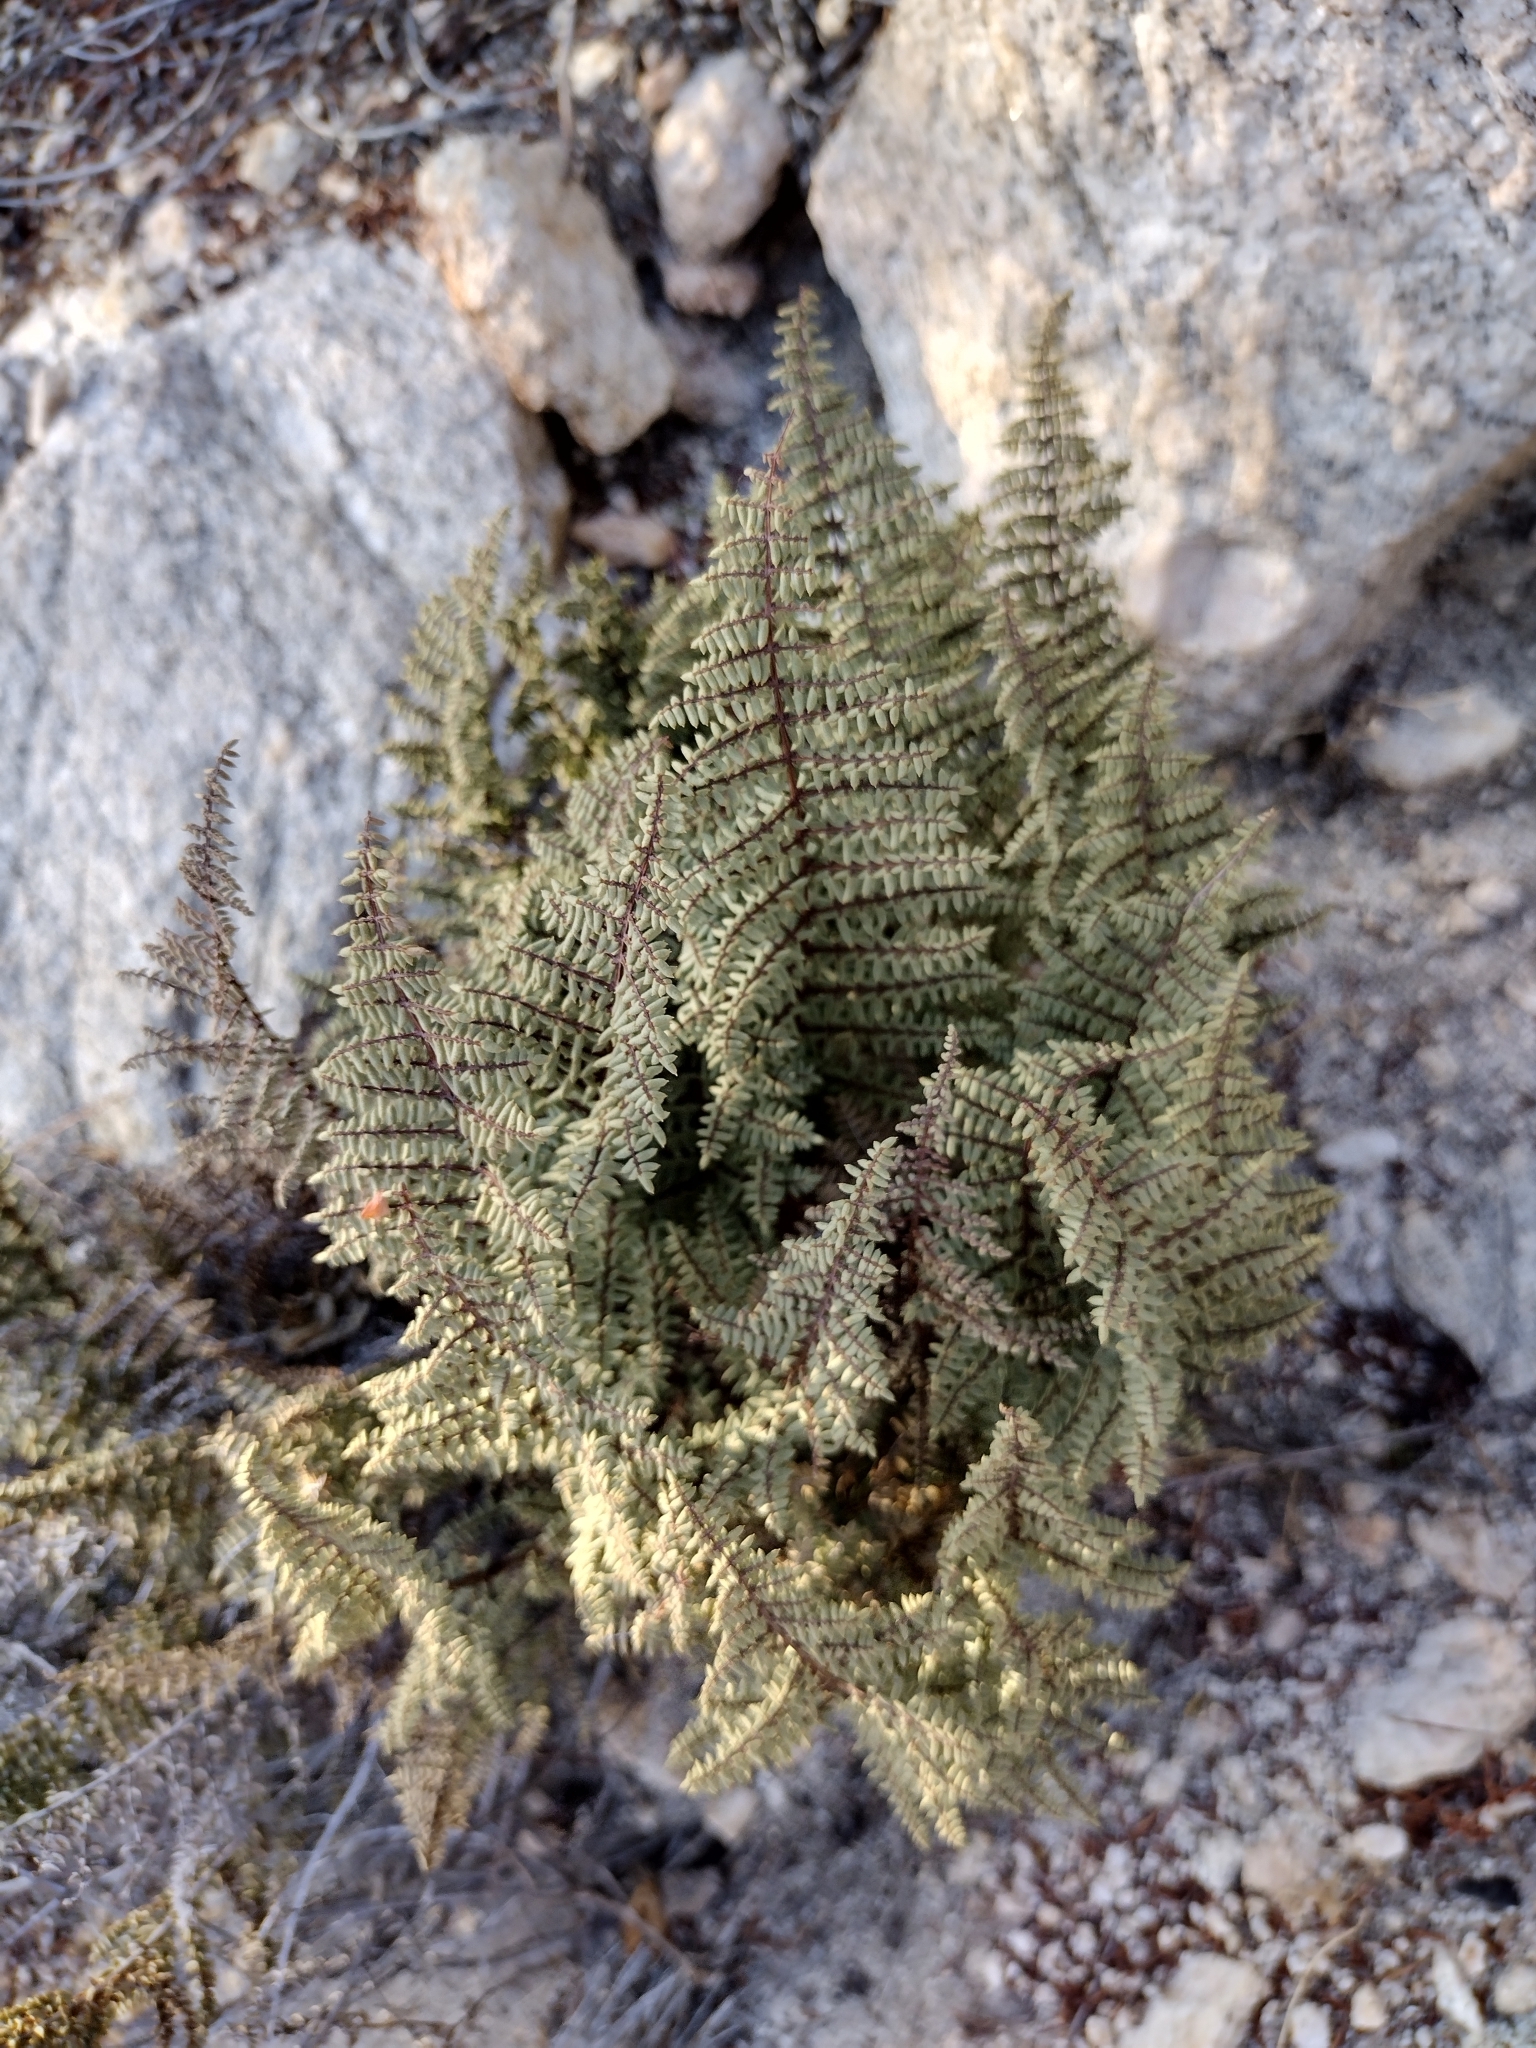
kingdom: Plantae
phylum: Tracheophyta
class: Polypodiopsida
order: Polypodiales
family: Pteridaceae
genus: Pellaea
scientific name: Pellaea mucronata
